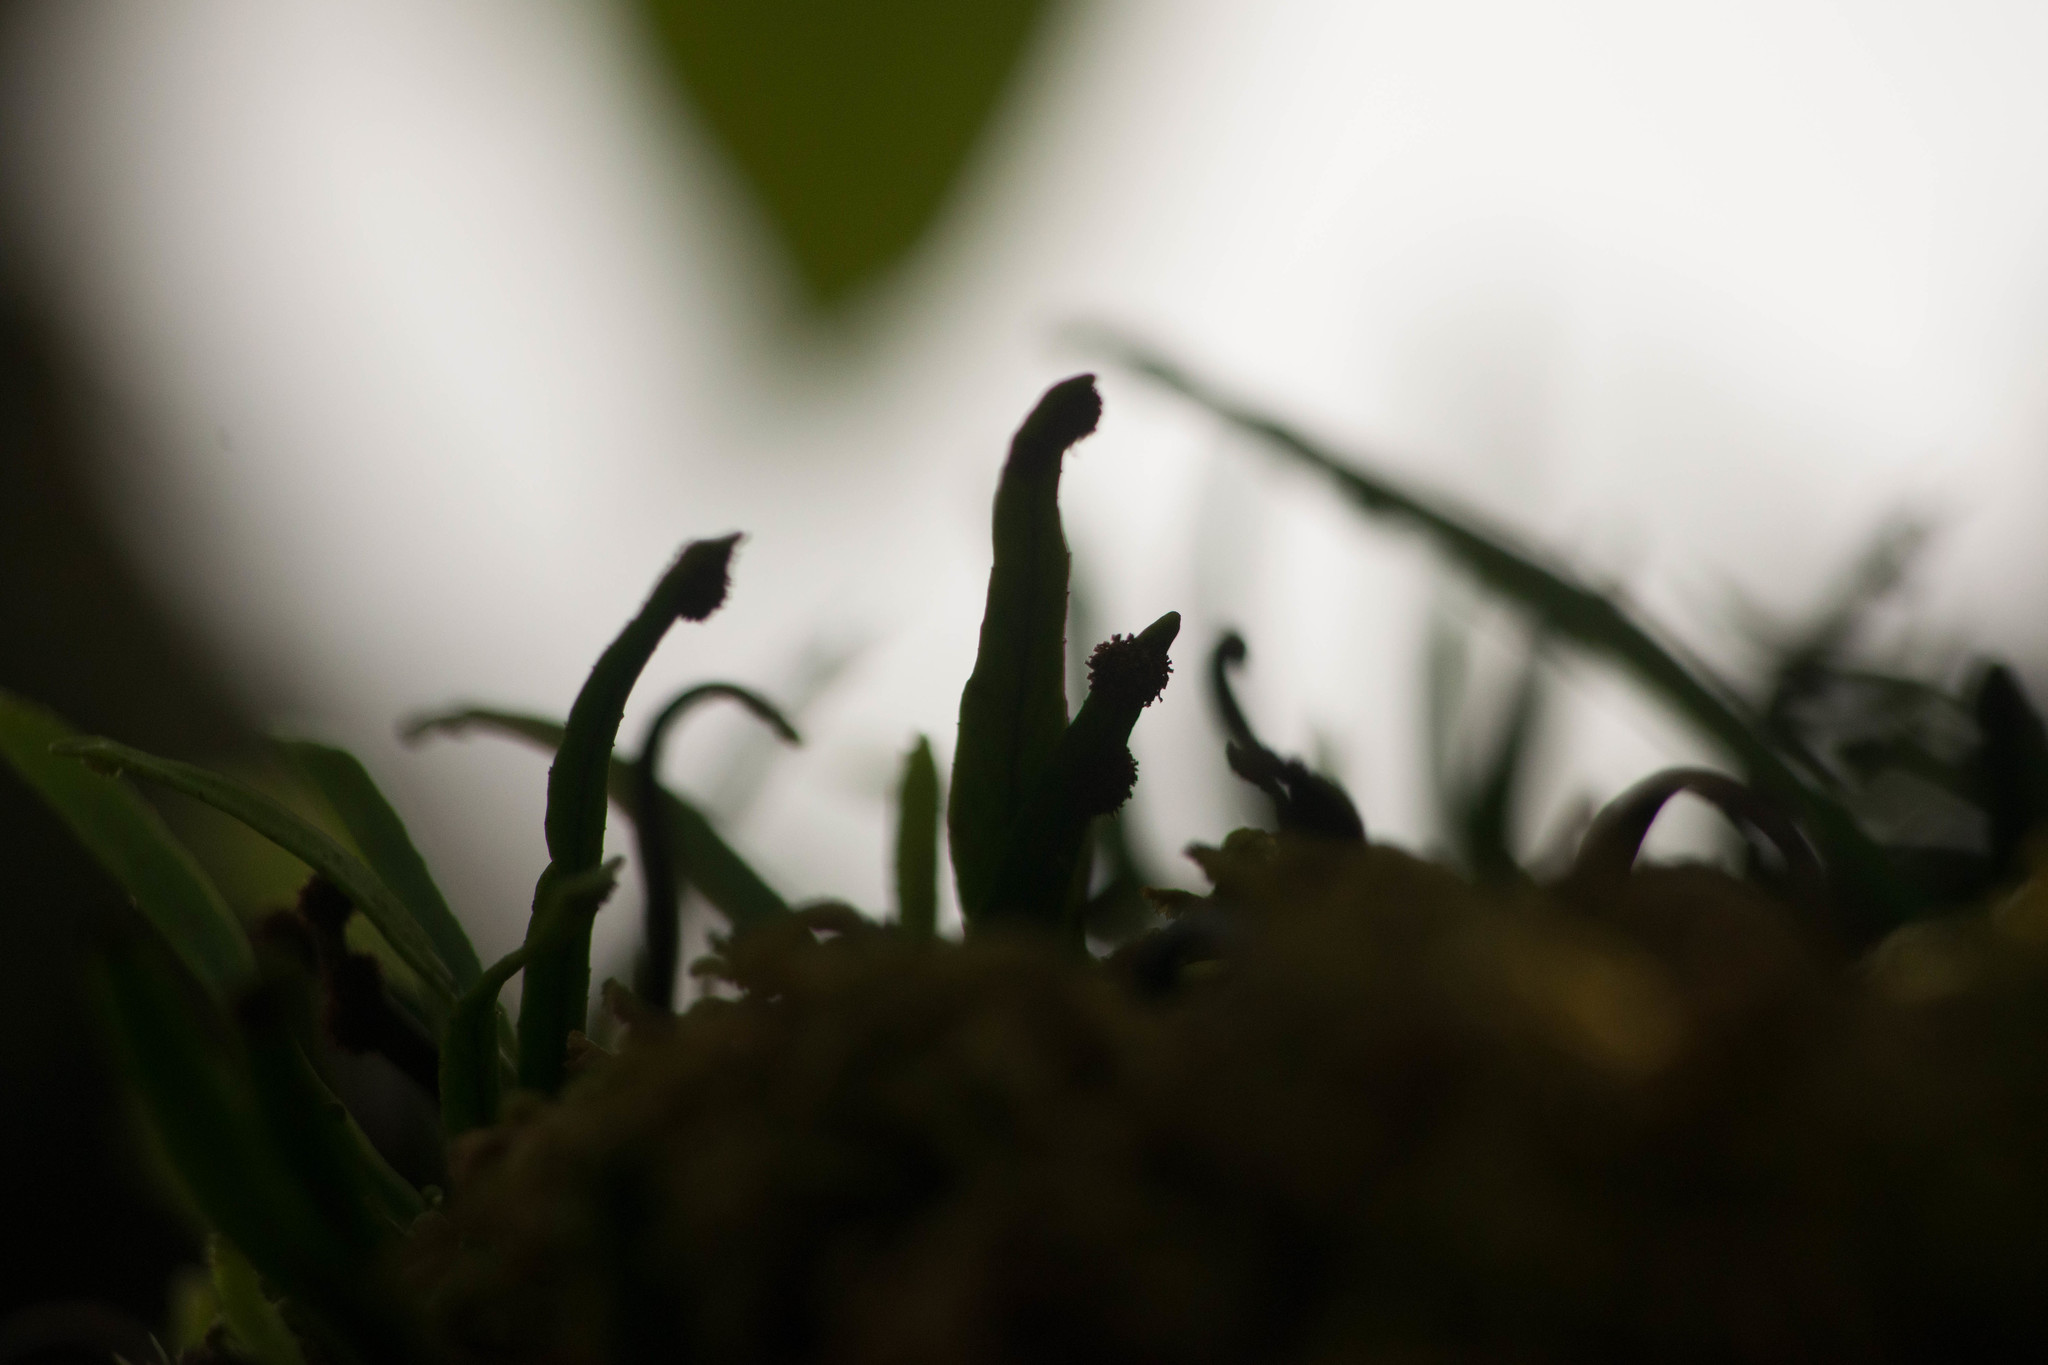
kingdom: Plantae
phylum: Tracheophyta
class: Polypodiopsida
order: Polypodiales
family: Polypodiaceae
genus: Adenophorus
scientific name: Adenophorus tenellus
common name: Kolokolo
